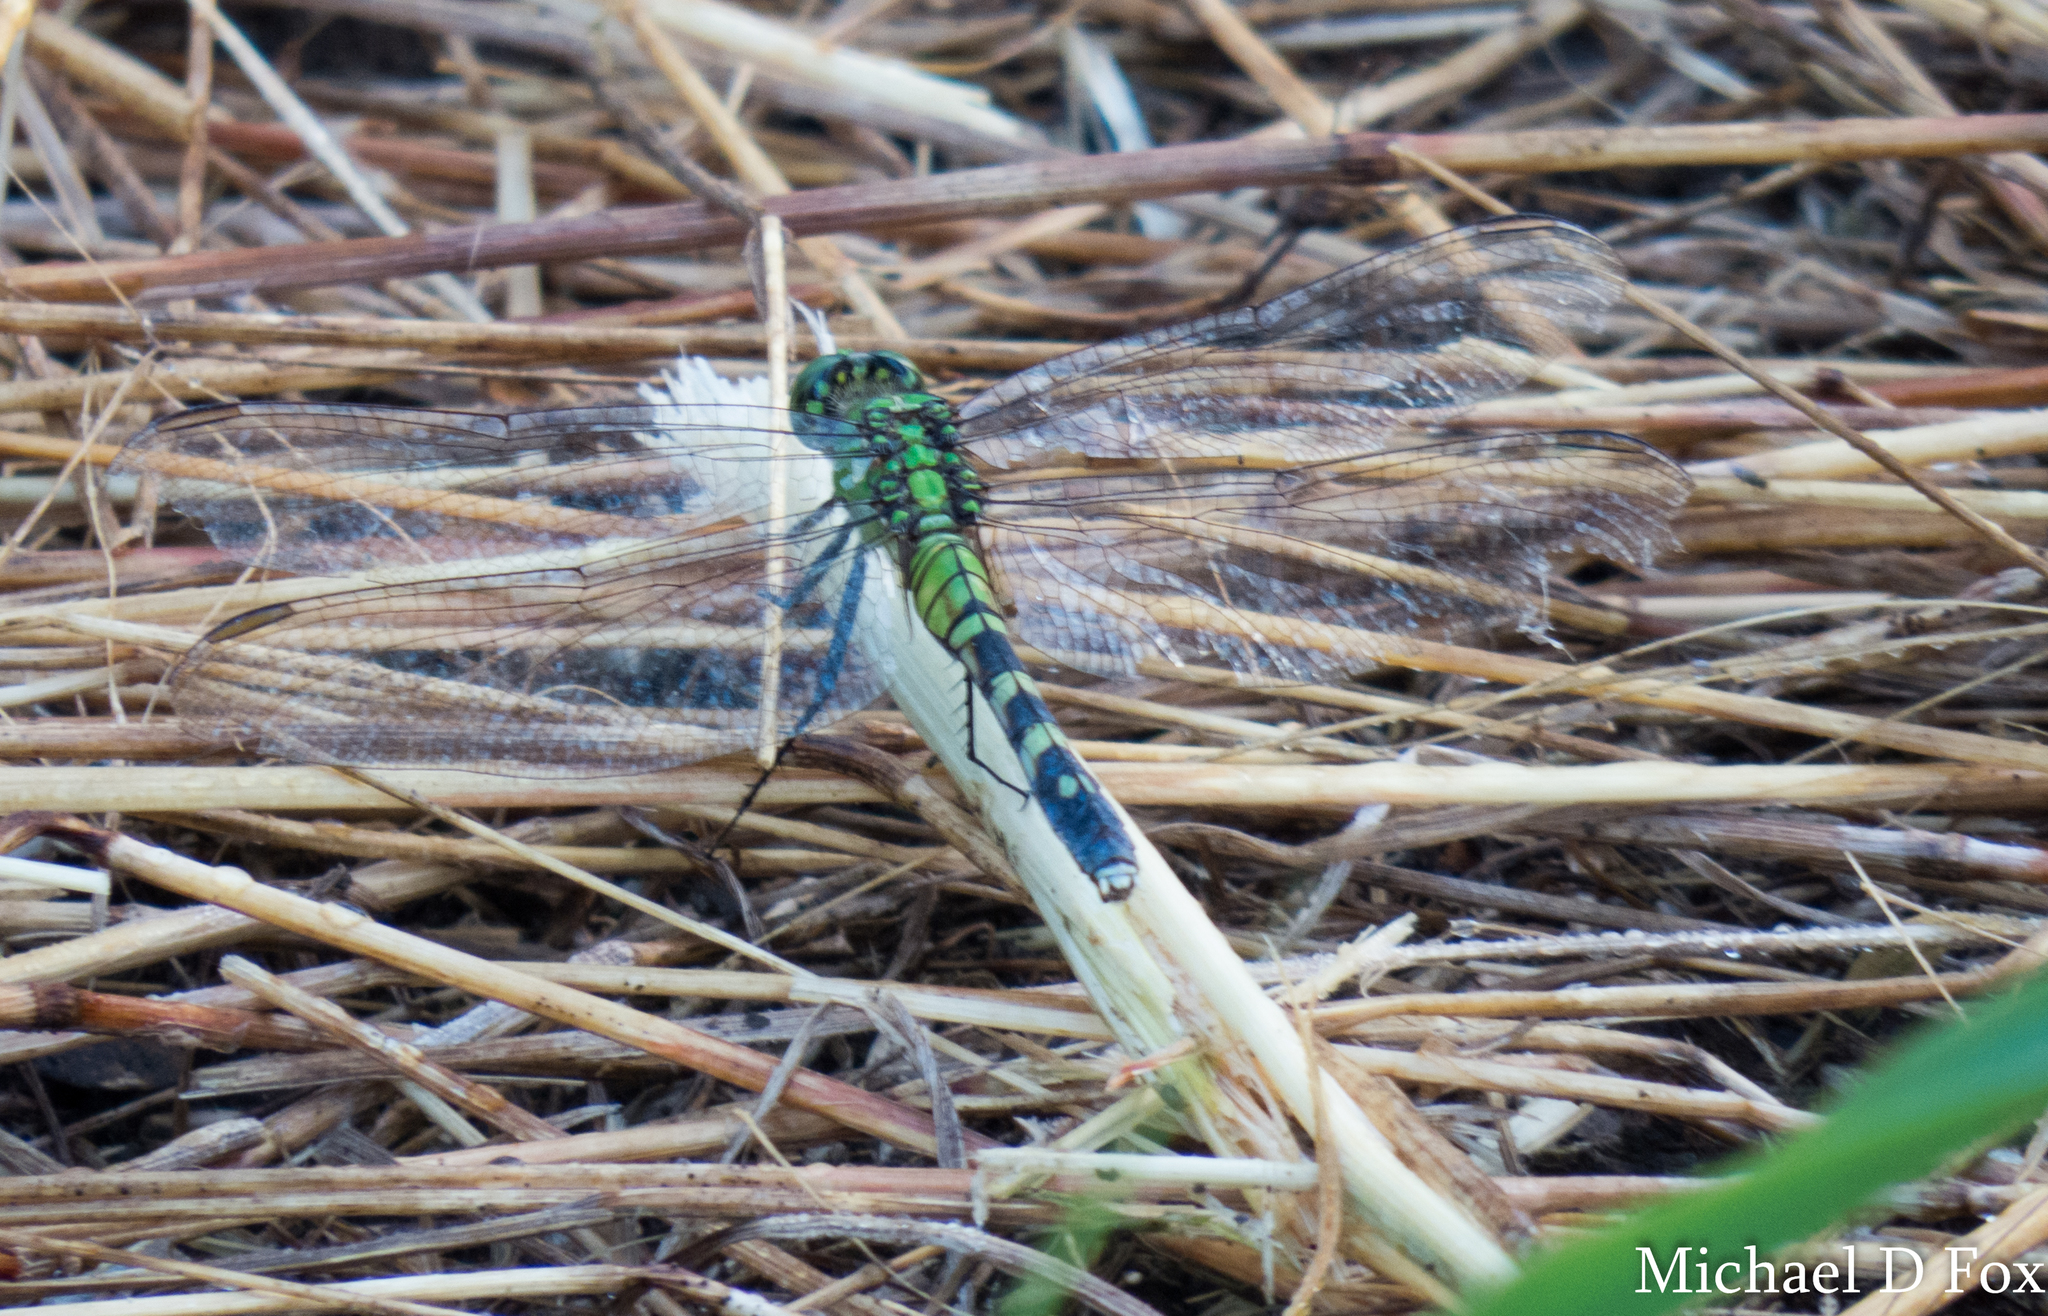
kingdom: Animalia
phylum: Arthropoda
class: Insecta
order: Odonata
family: Libellulidae
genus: Erythemis
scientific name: Erythemis simplicicollis
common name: Eastern pondhawk
